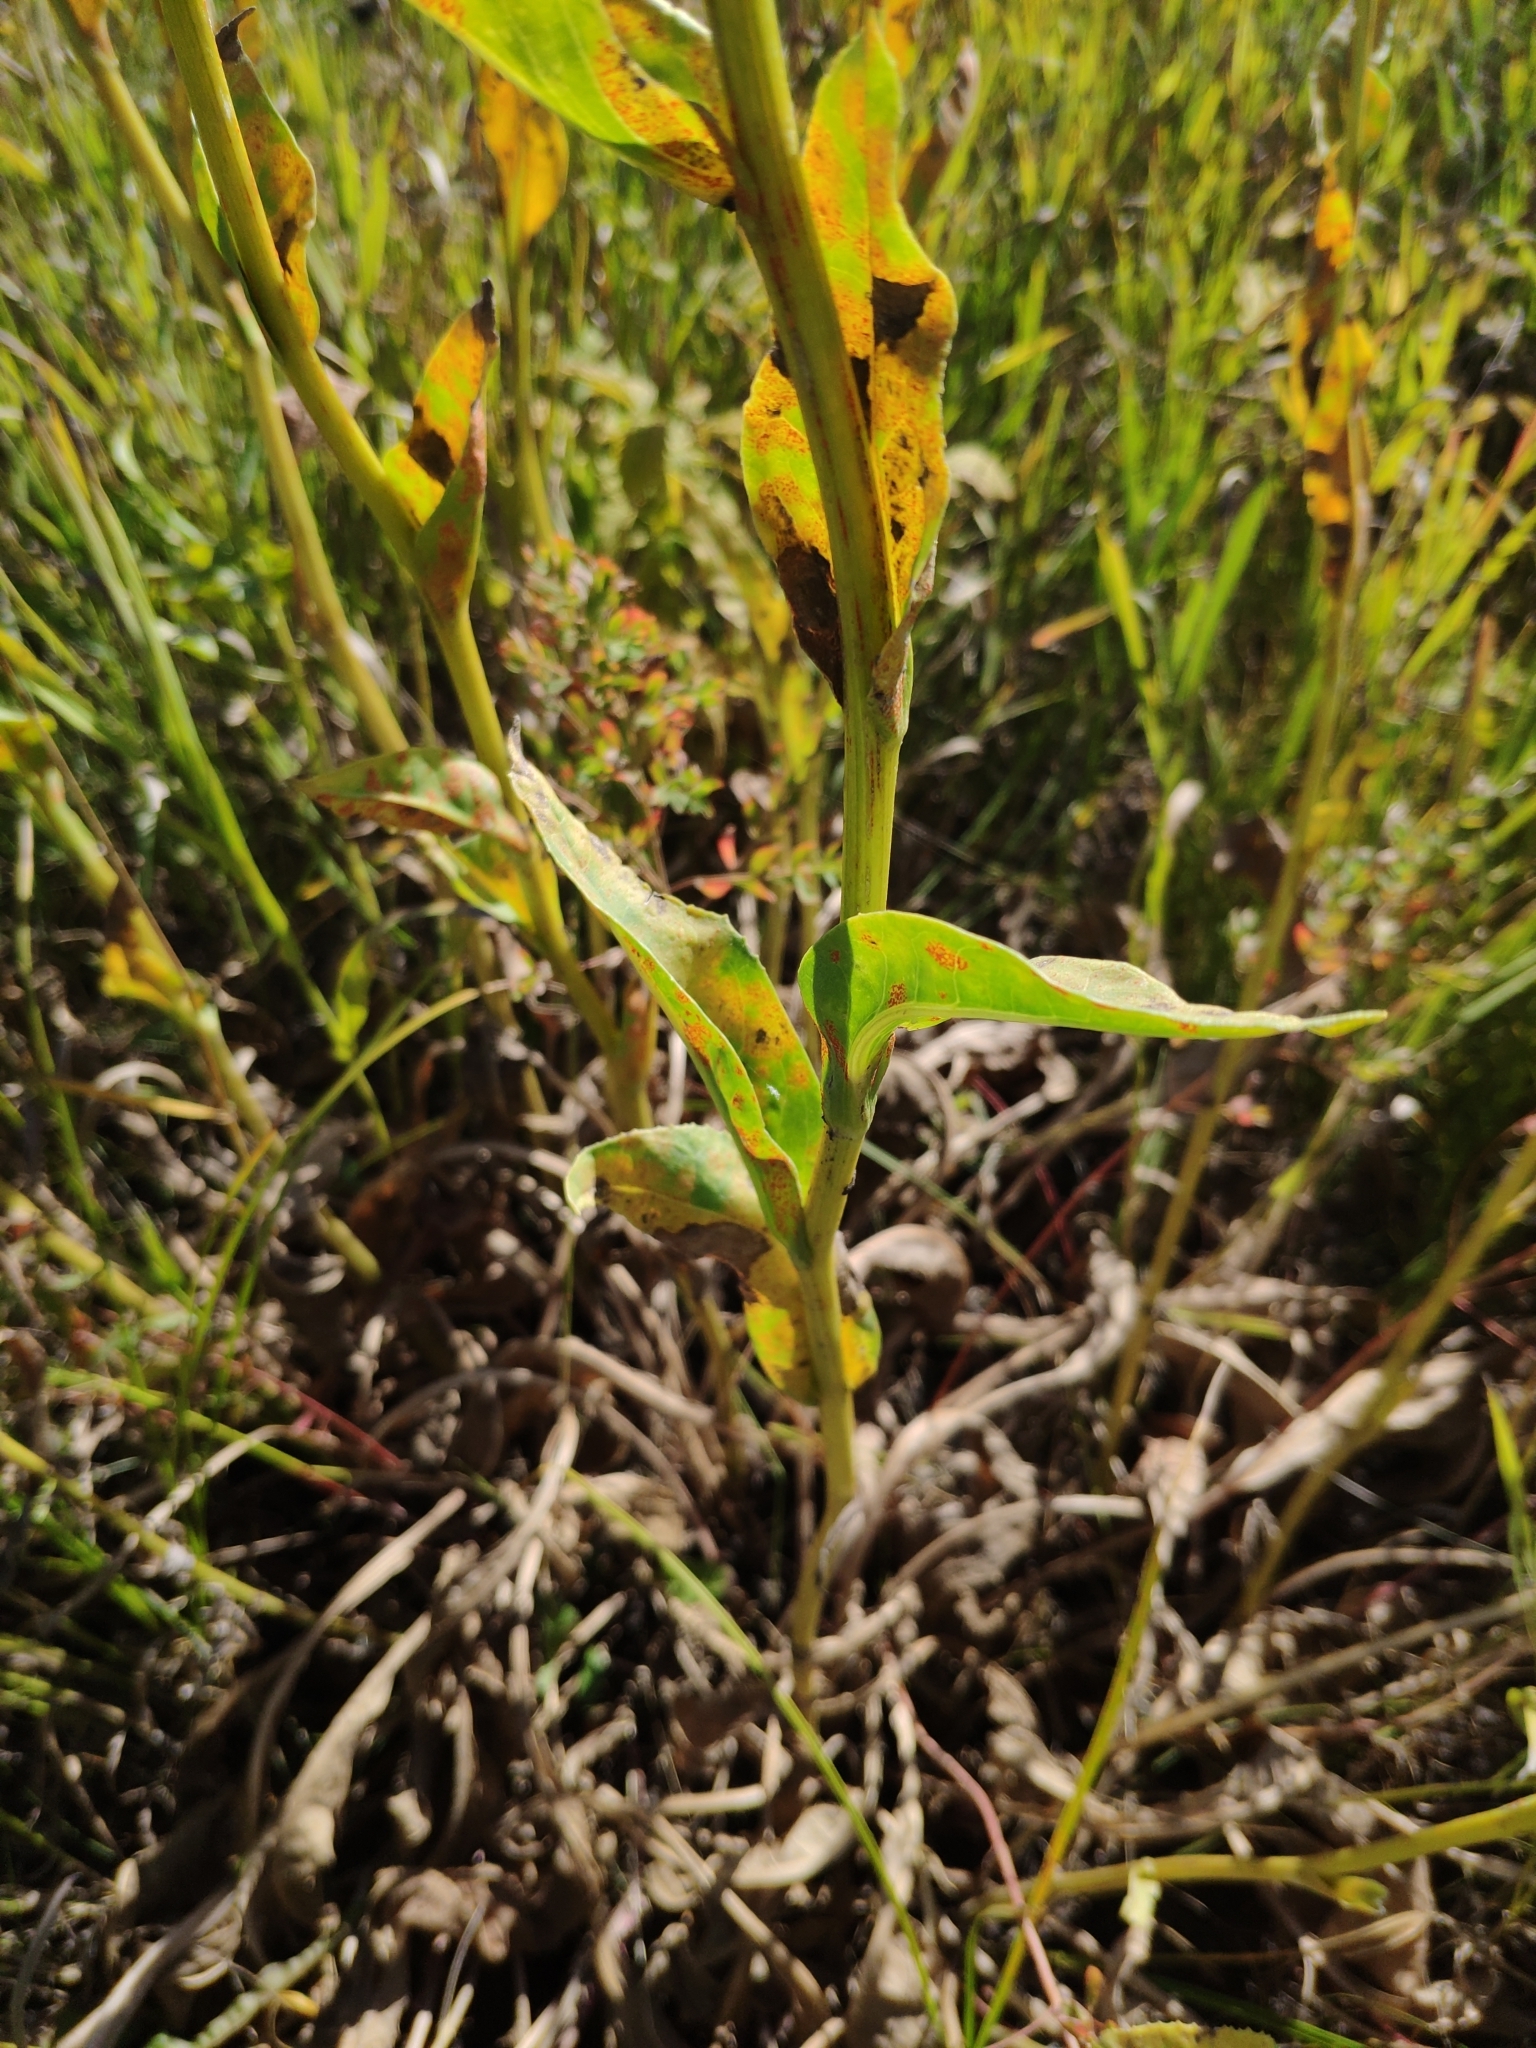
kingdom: Plantae
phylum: Tracheophyta
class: Magnoliopsida
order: Asterales
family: Asteraceae
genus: Senecio
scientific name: Senecio doria
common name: Golden ragwort
